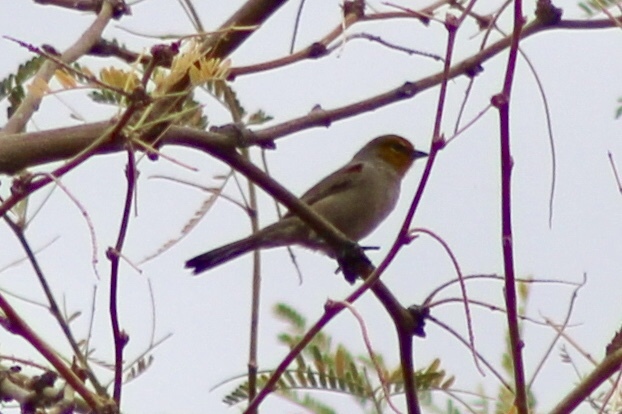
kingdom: Animalia
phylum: Chordata
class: Aves
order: Passeriformes
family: Remizidae
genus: Auriparus
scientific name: Auriparus flaviceps
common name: Verdin
